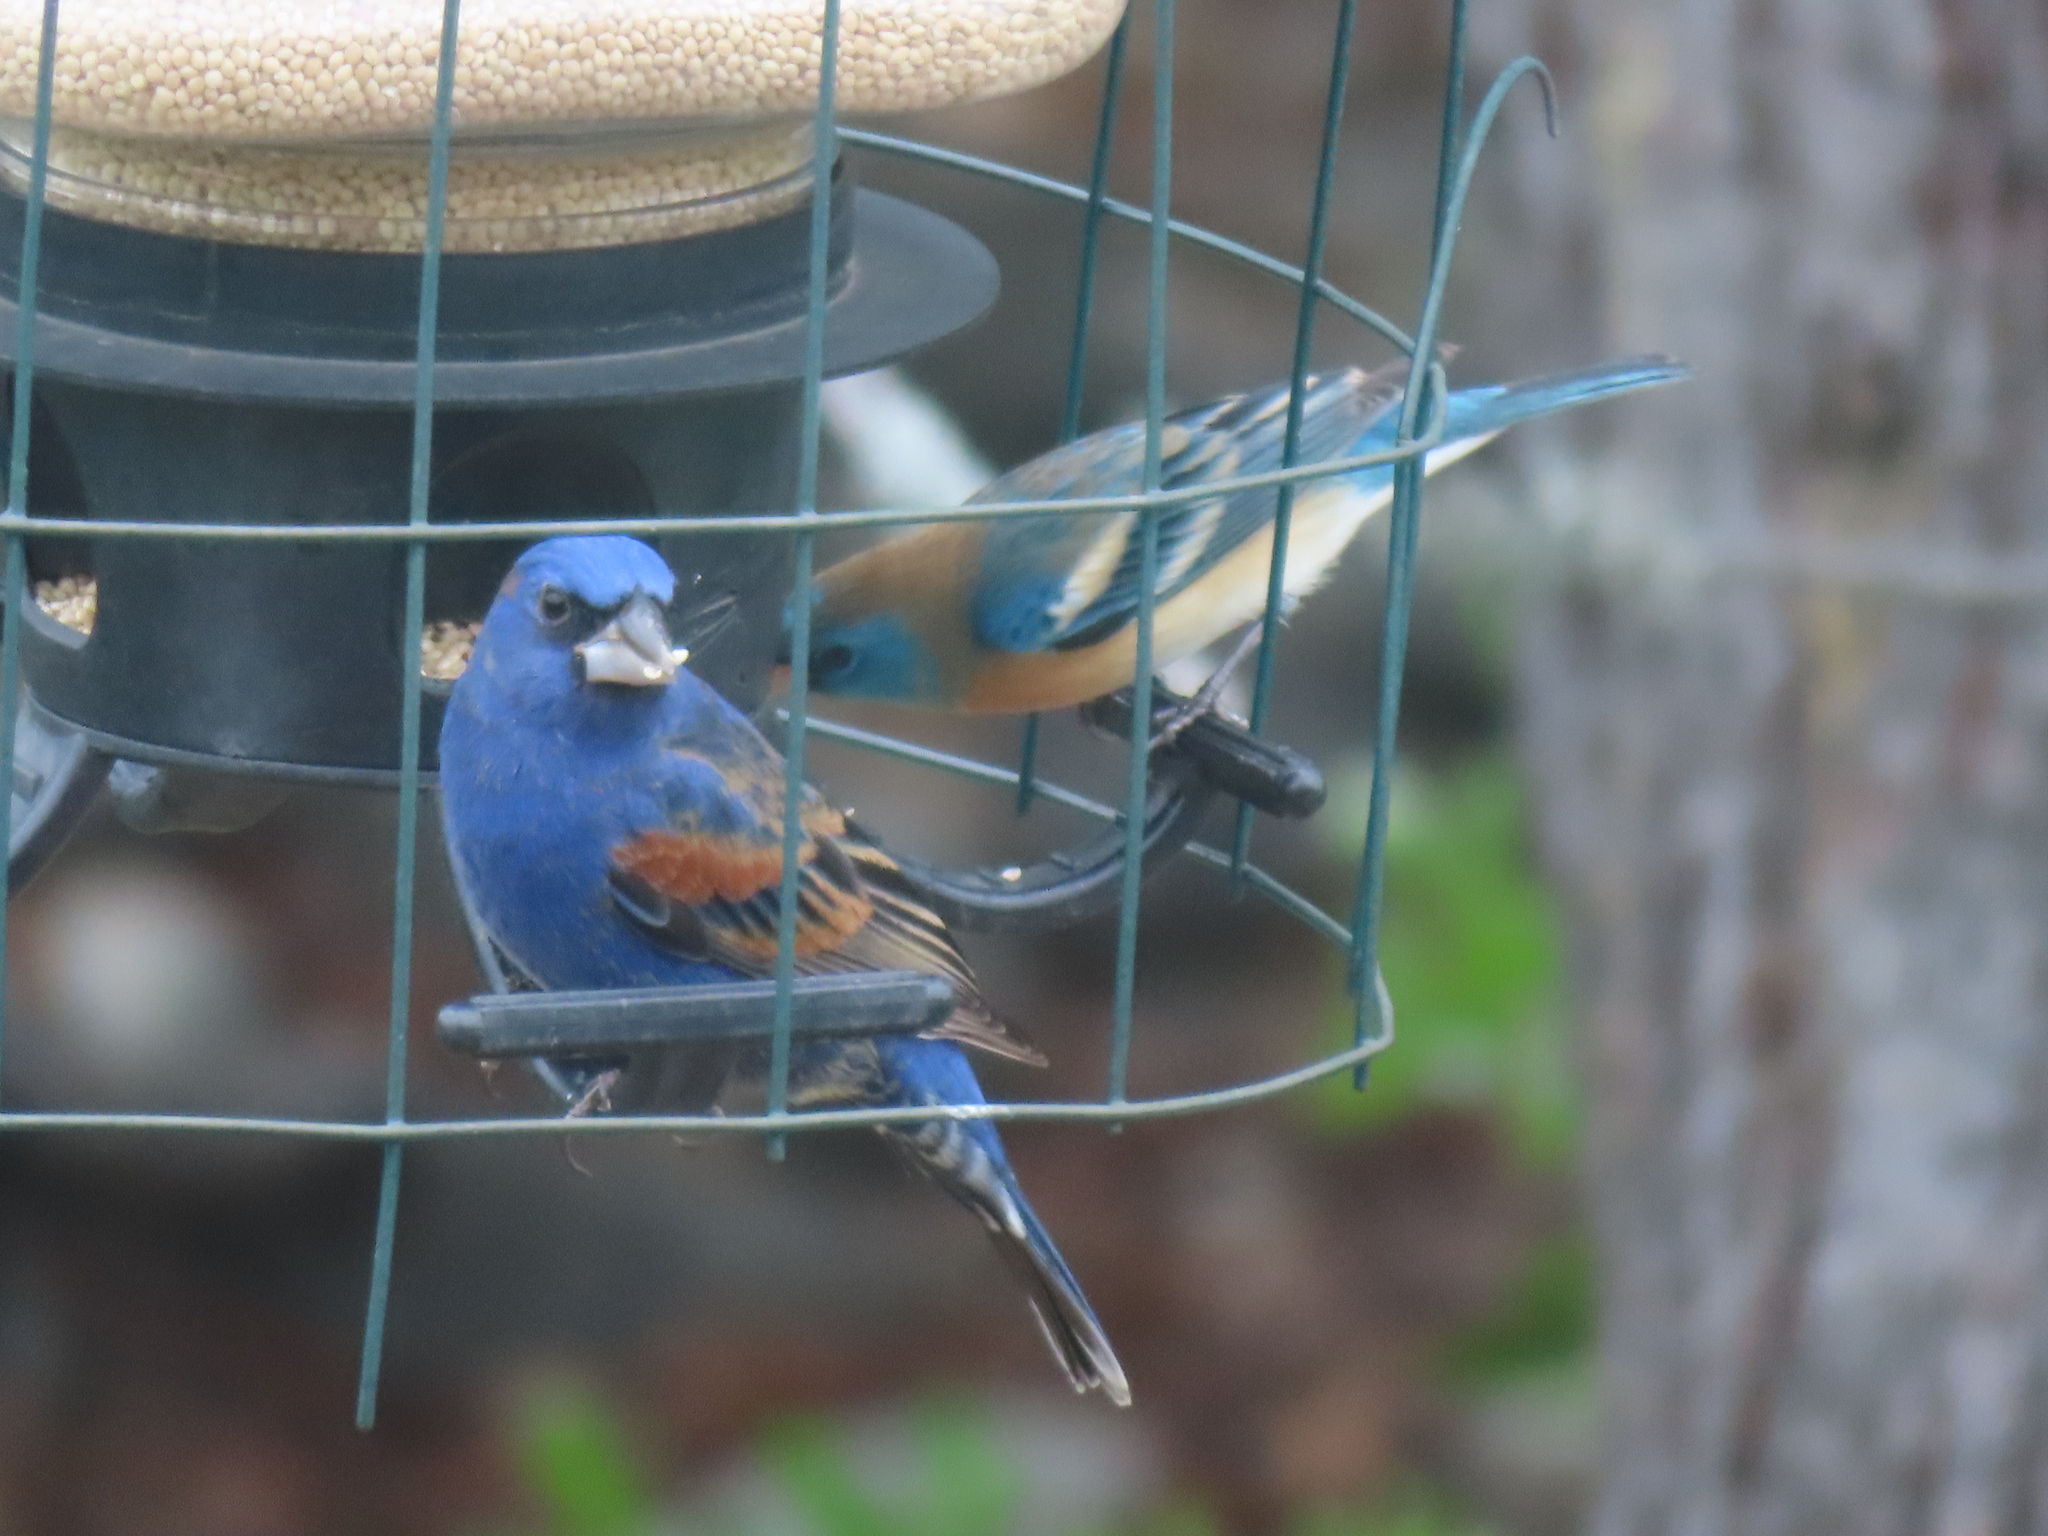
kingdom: Animalia
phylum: Chordata
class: Aves
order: Passeriformes
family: Cardinalidae
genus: Passerina
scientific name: Passerina caerulea
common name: Blue grosbeak
